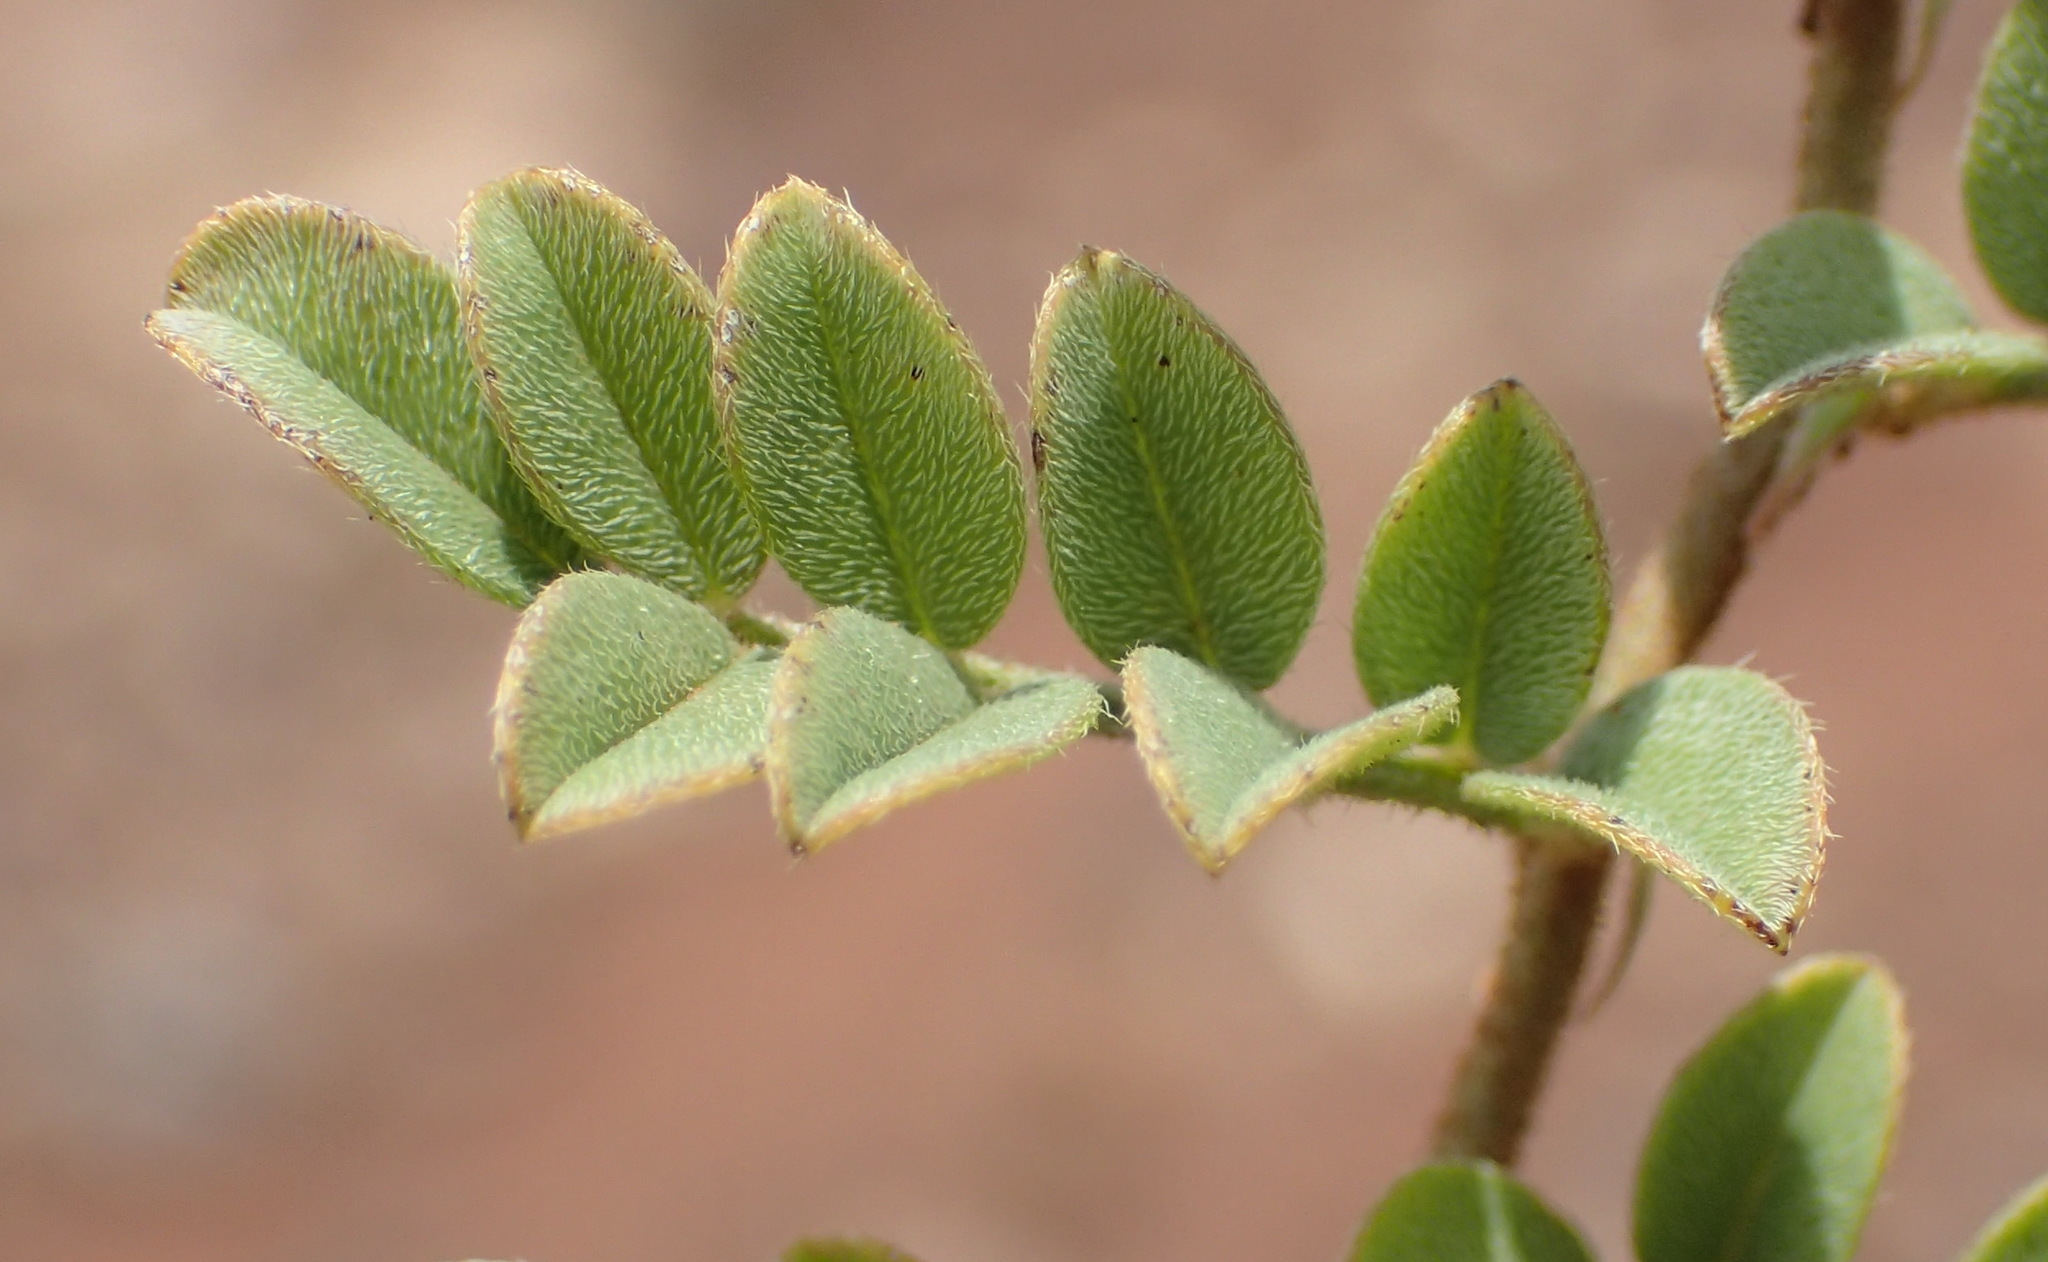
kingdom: Plantae
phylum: Tracheophyta
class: Magnoliopsida
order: Fabales
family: Fabaceae
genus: Indigofera
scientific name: Indigofera daleoides
